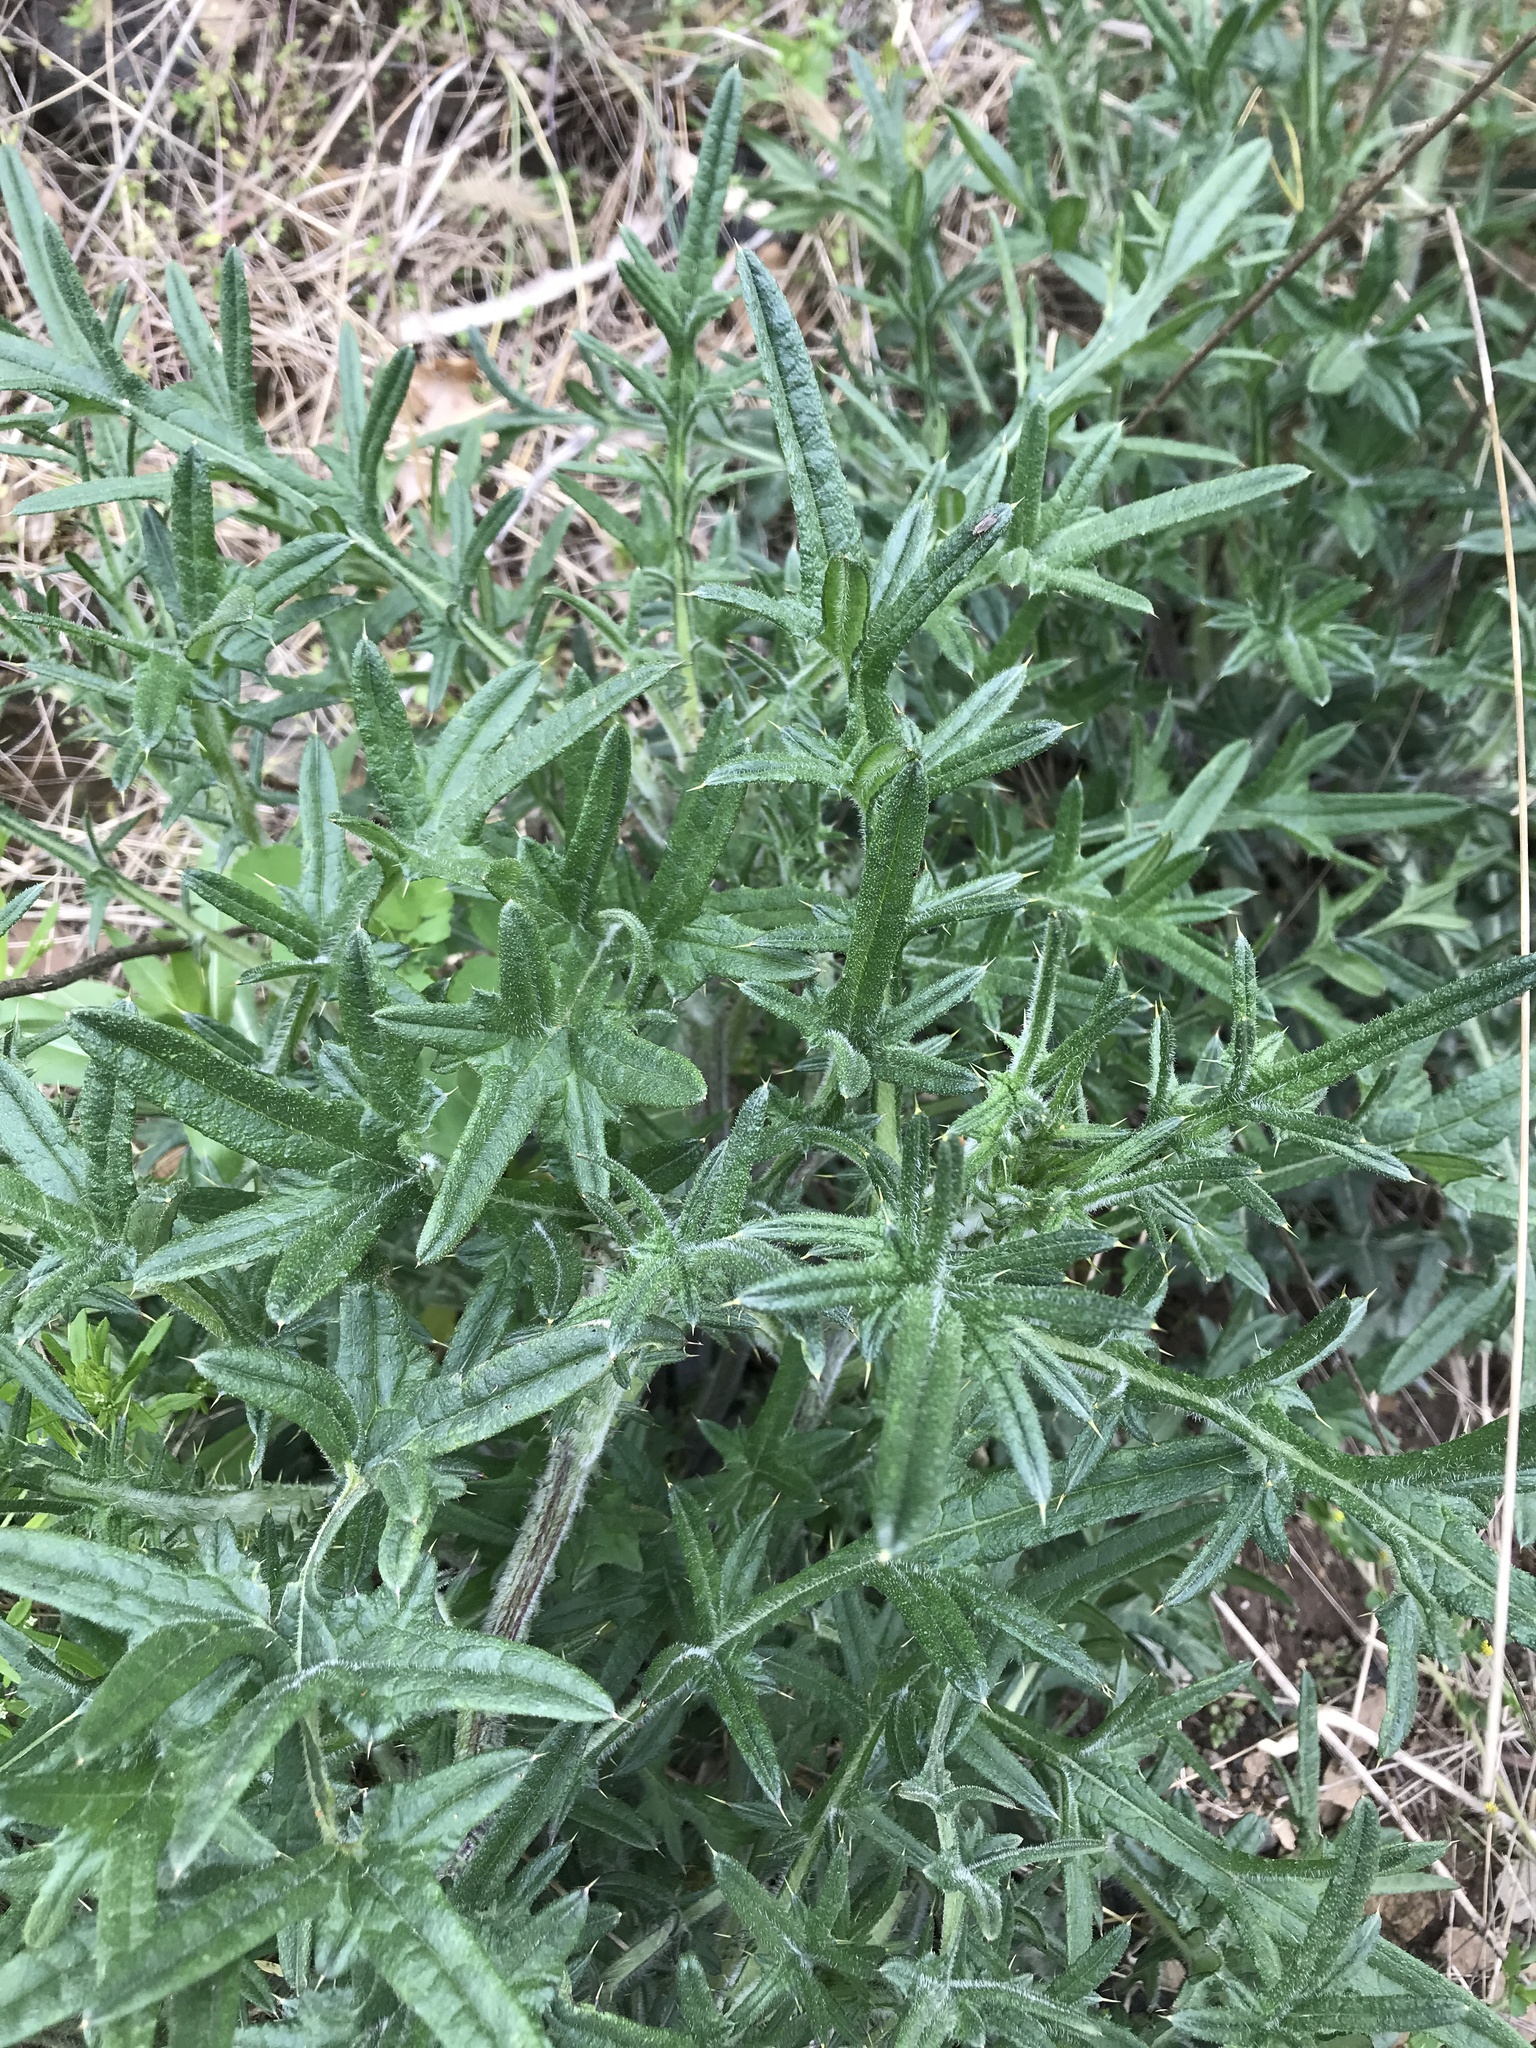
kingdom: Plantae
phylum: Tracheophyta
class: Magnoliopsida
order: Asterales
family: Asteraceae
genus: Cirsium
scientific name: Cirsium vulgare
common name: Bull thistle
